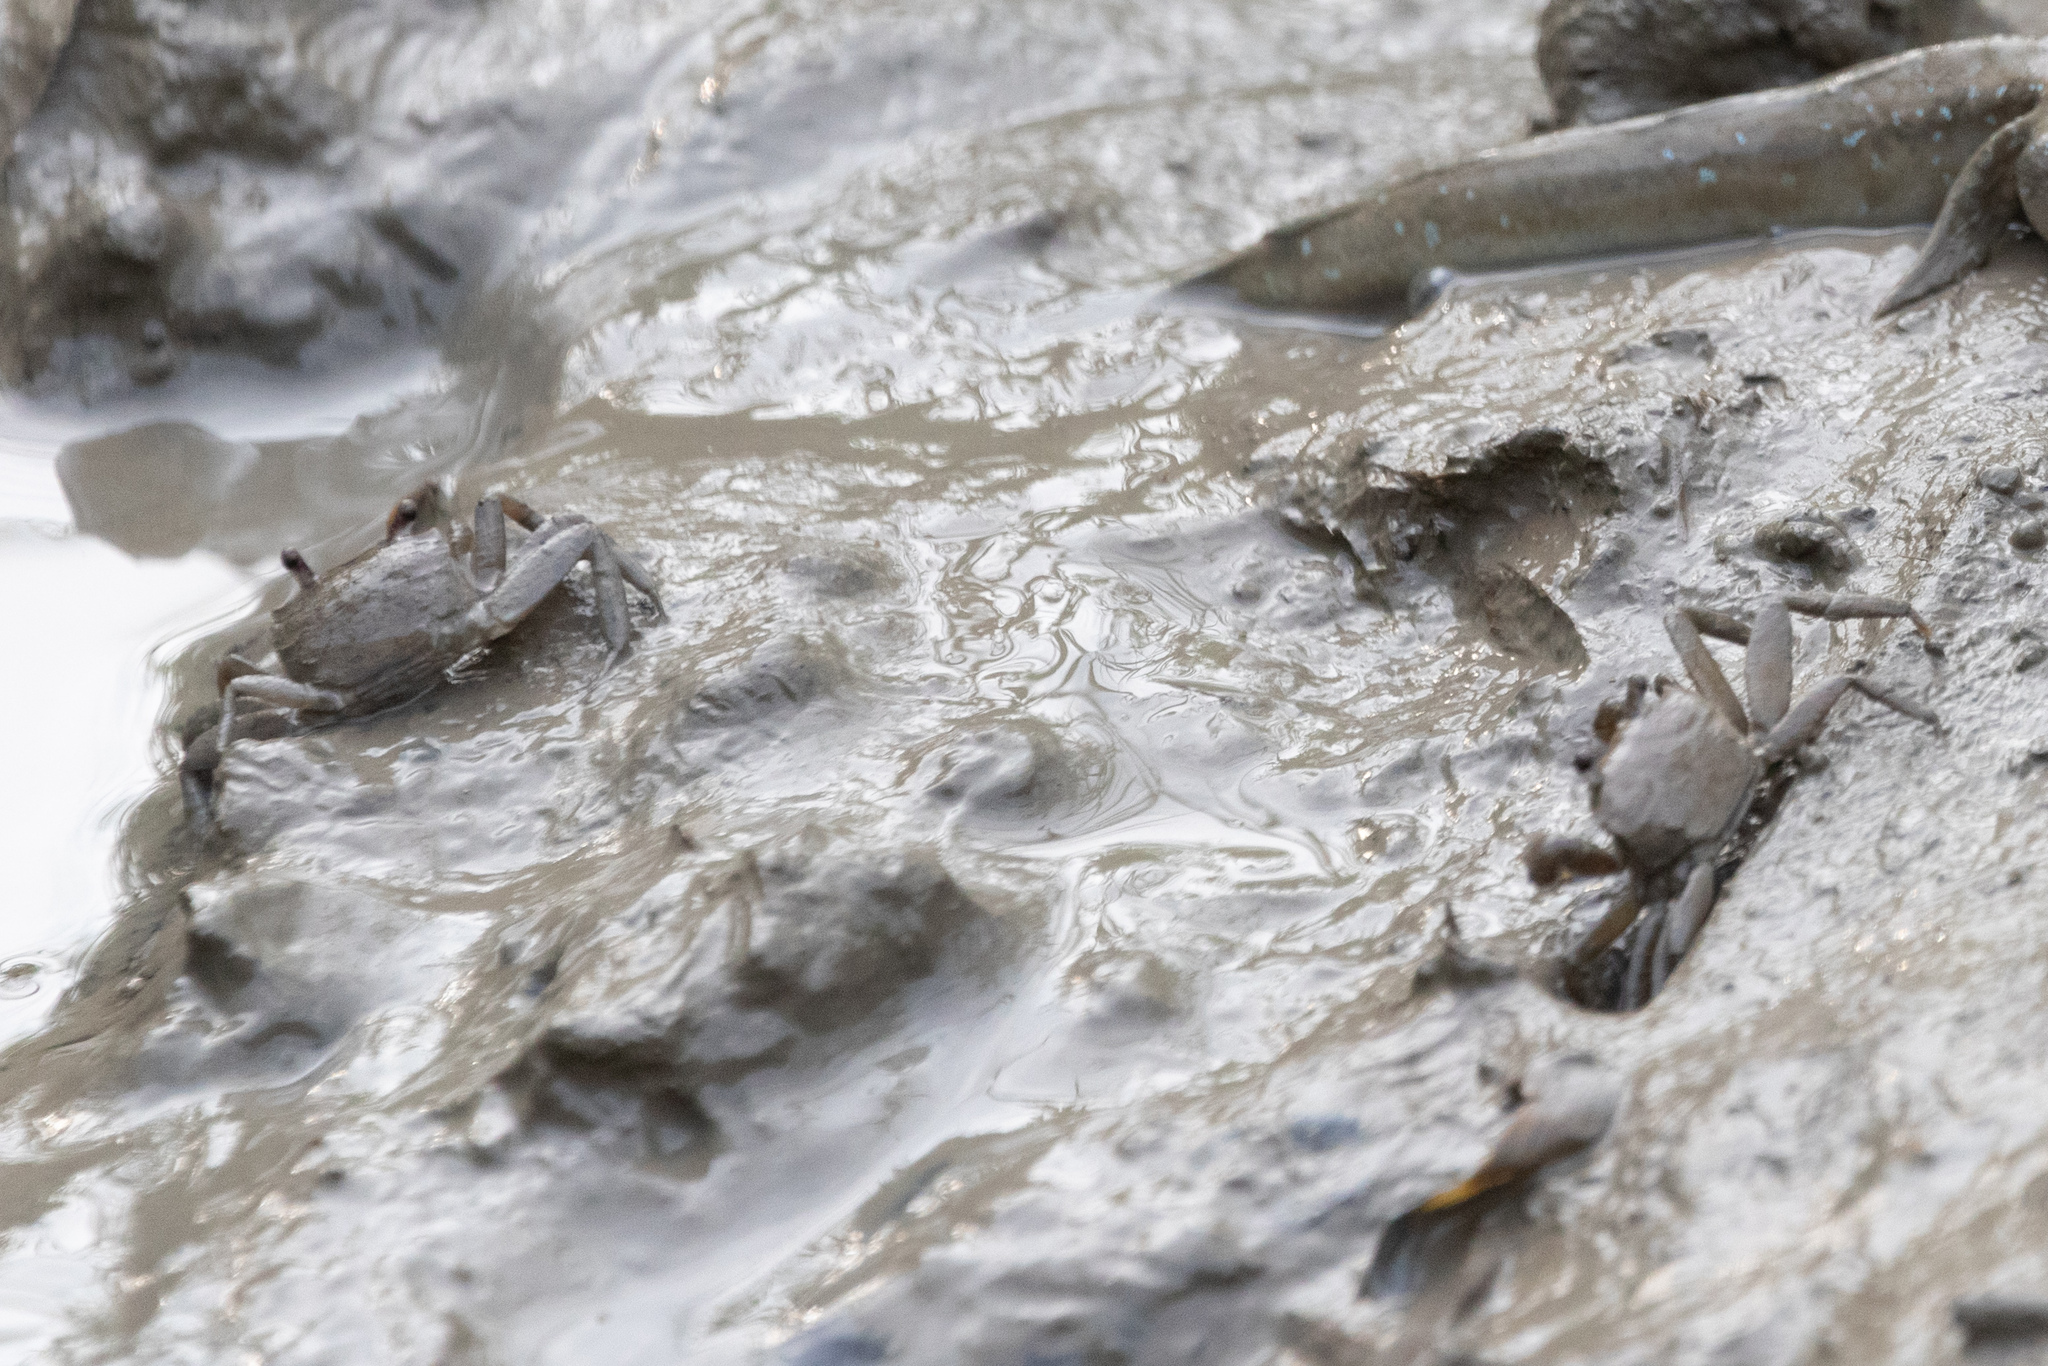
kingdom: Animalia
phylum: Arthropoda
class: Malacostraca
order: Decapoda
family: Varunidae
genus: Metaplax
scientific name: Metaplax longipes
